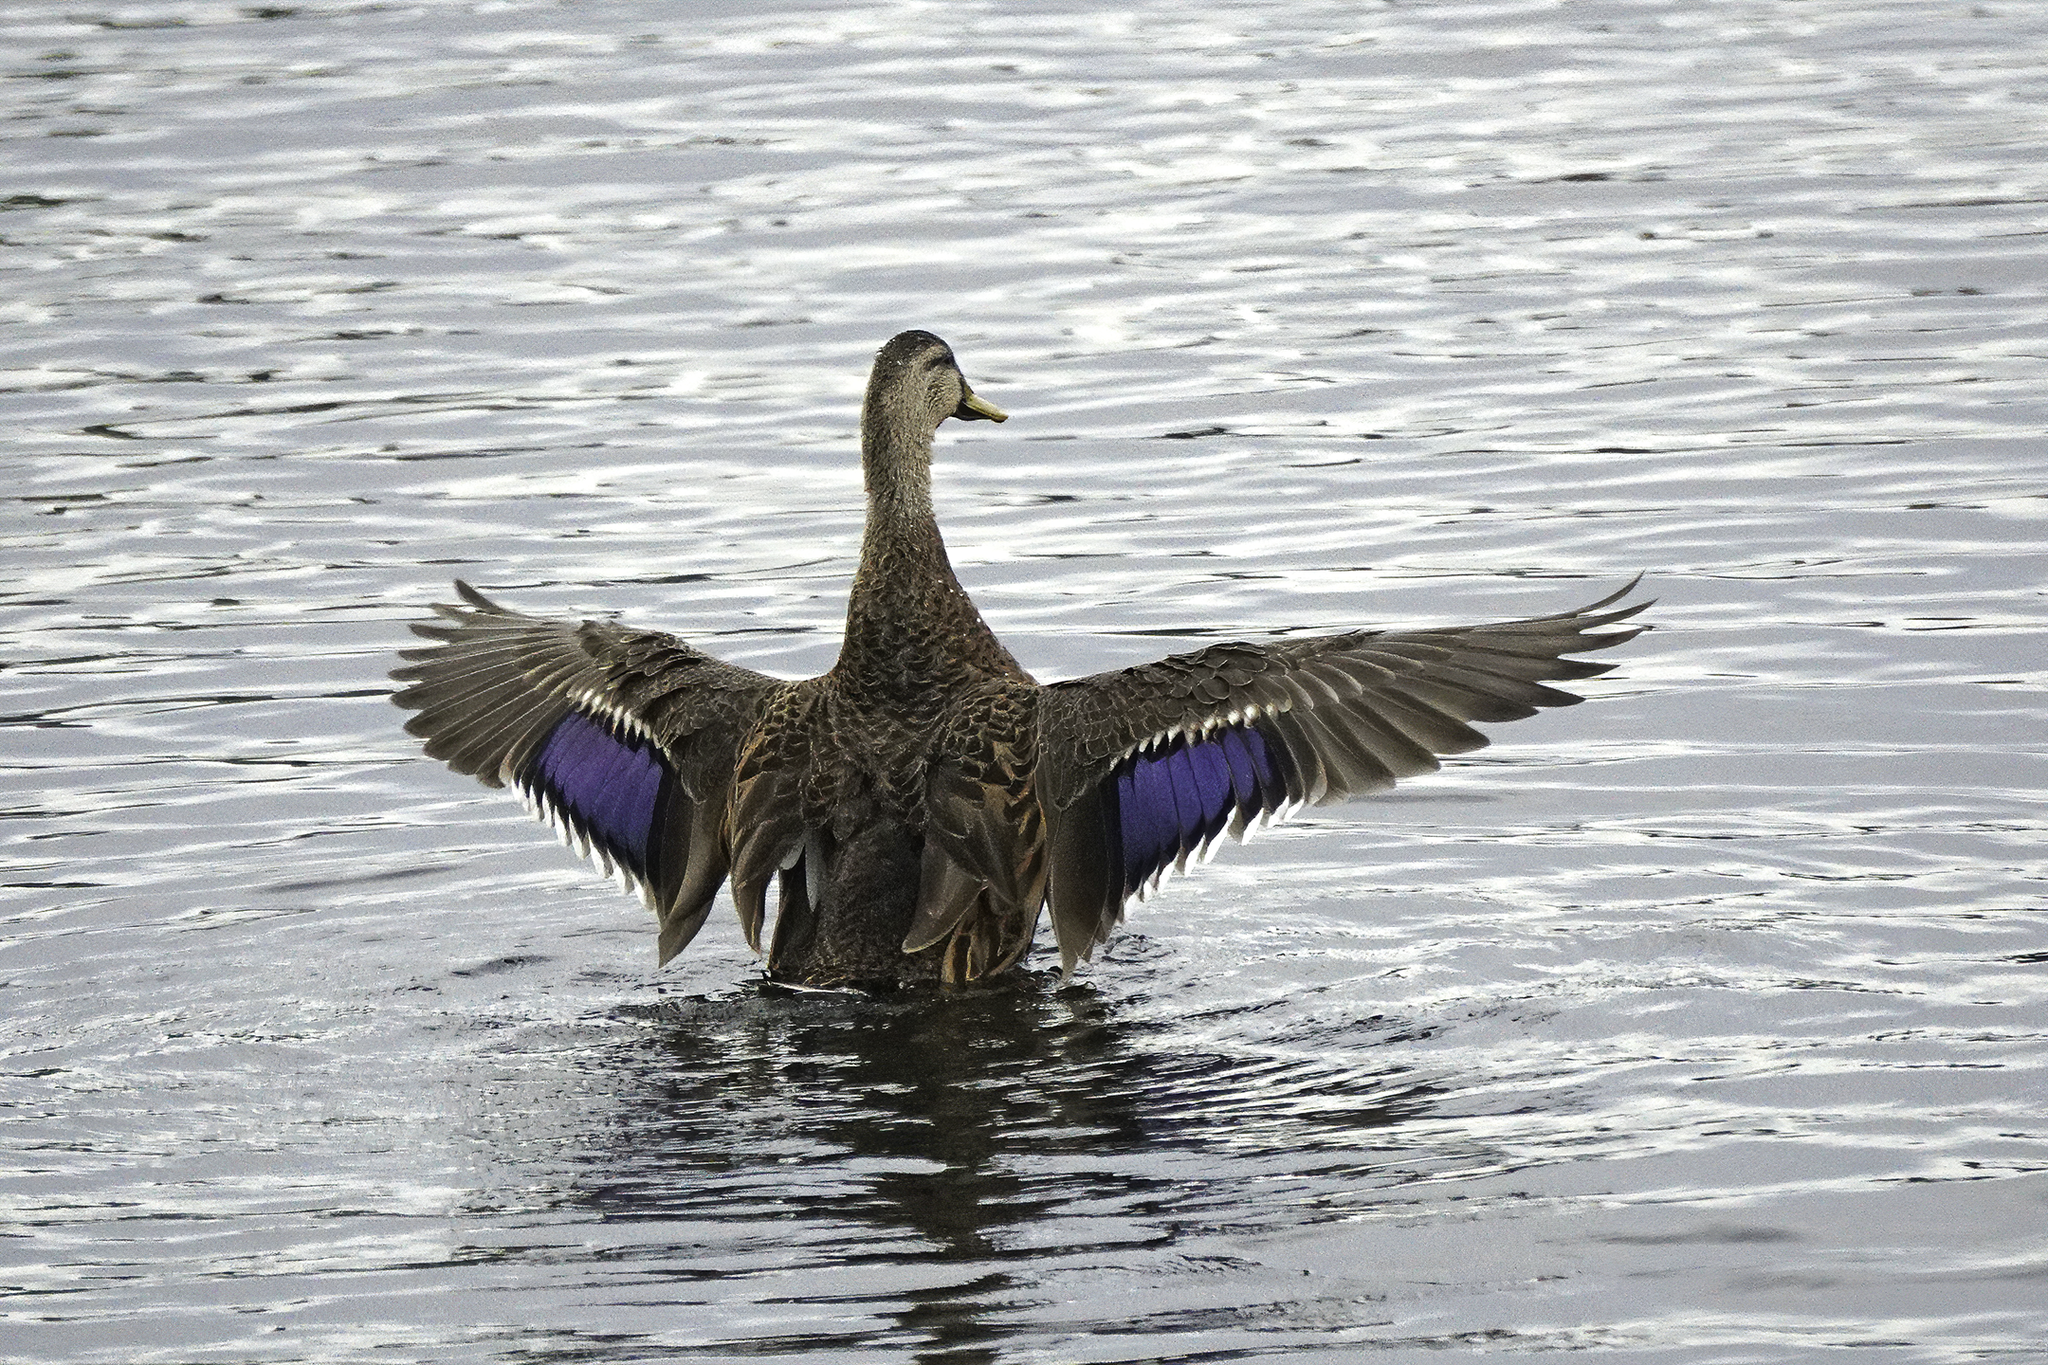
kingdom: Animalia
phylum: Chordata
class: Aves
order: Anseriformes
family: Anatidae
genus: Anas
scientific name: Anas
